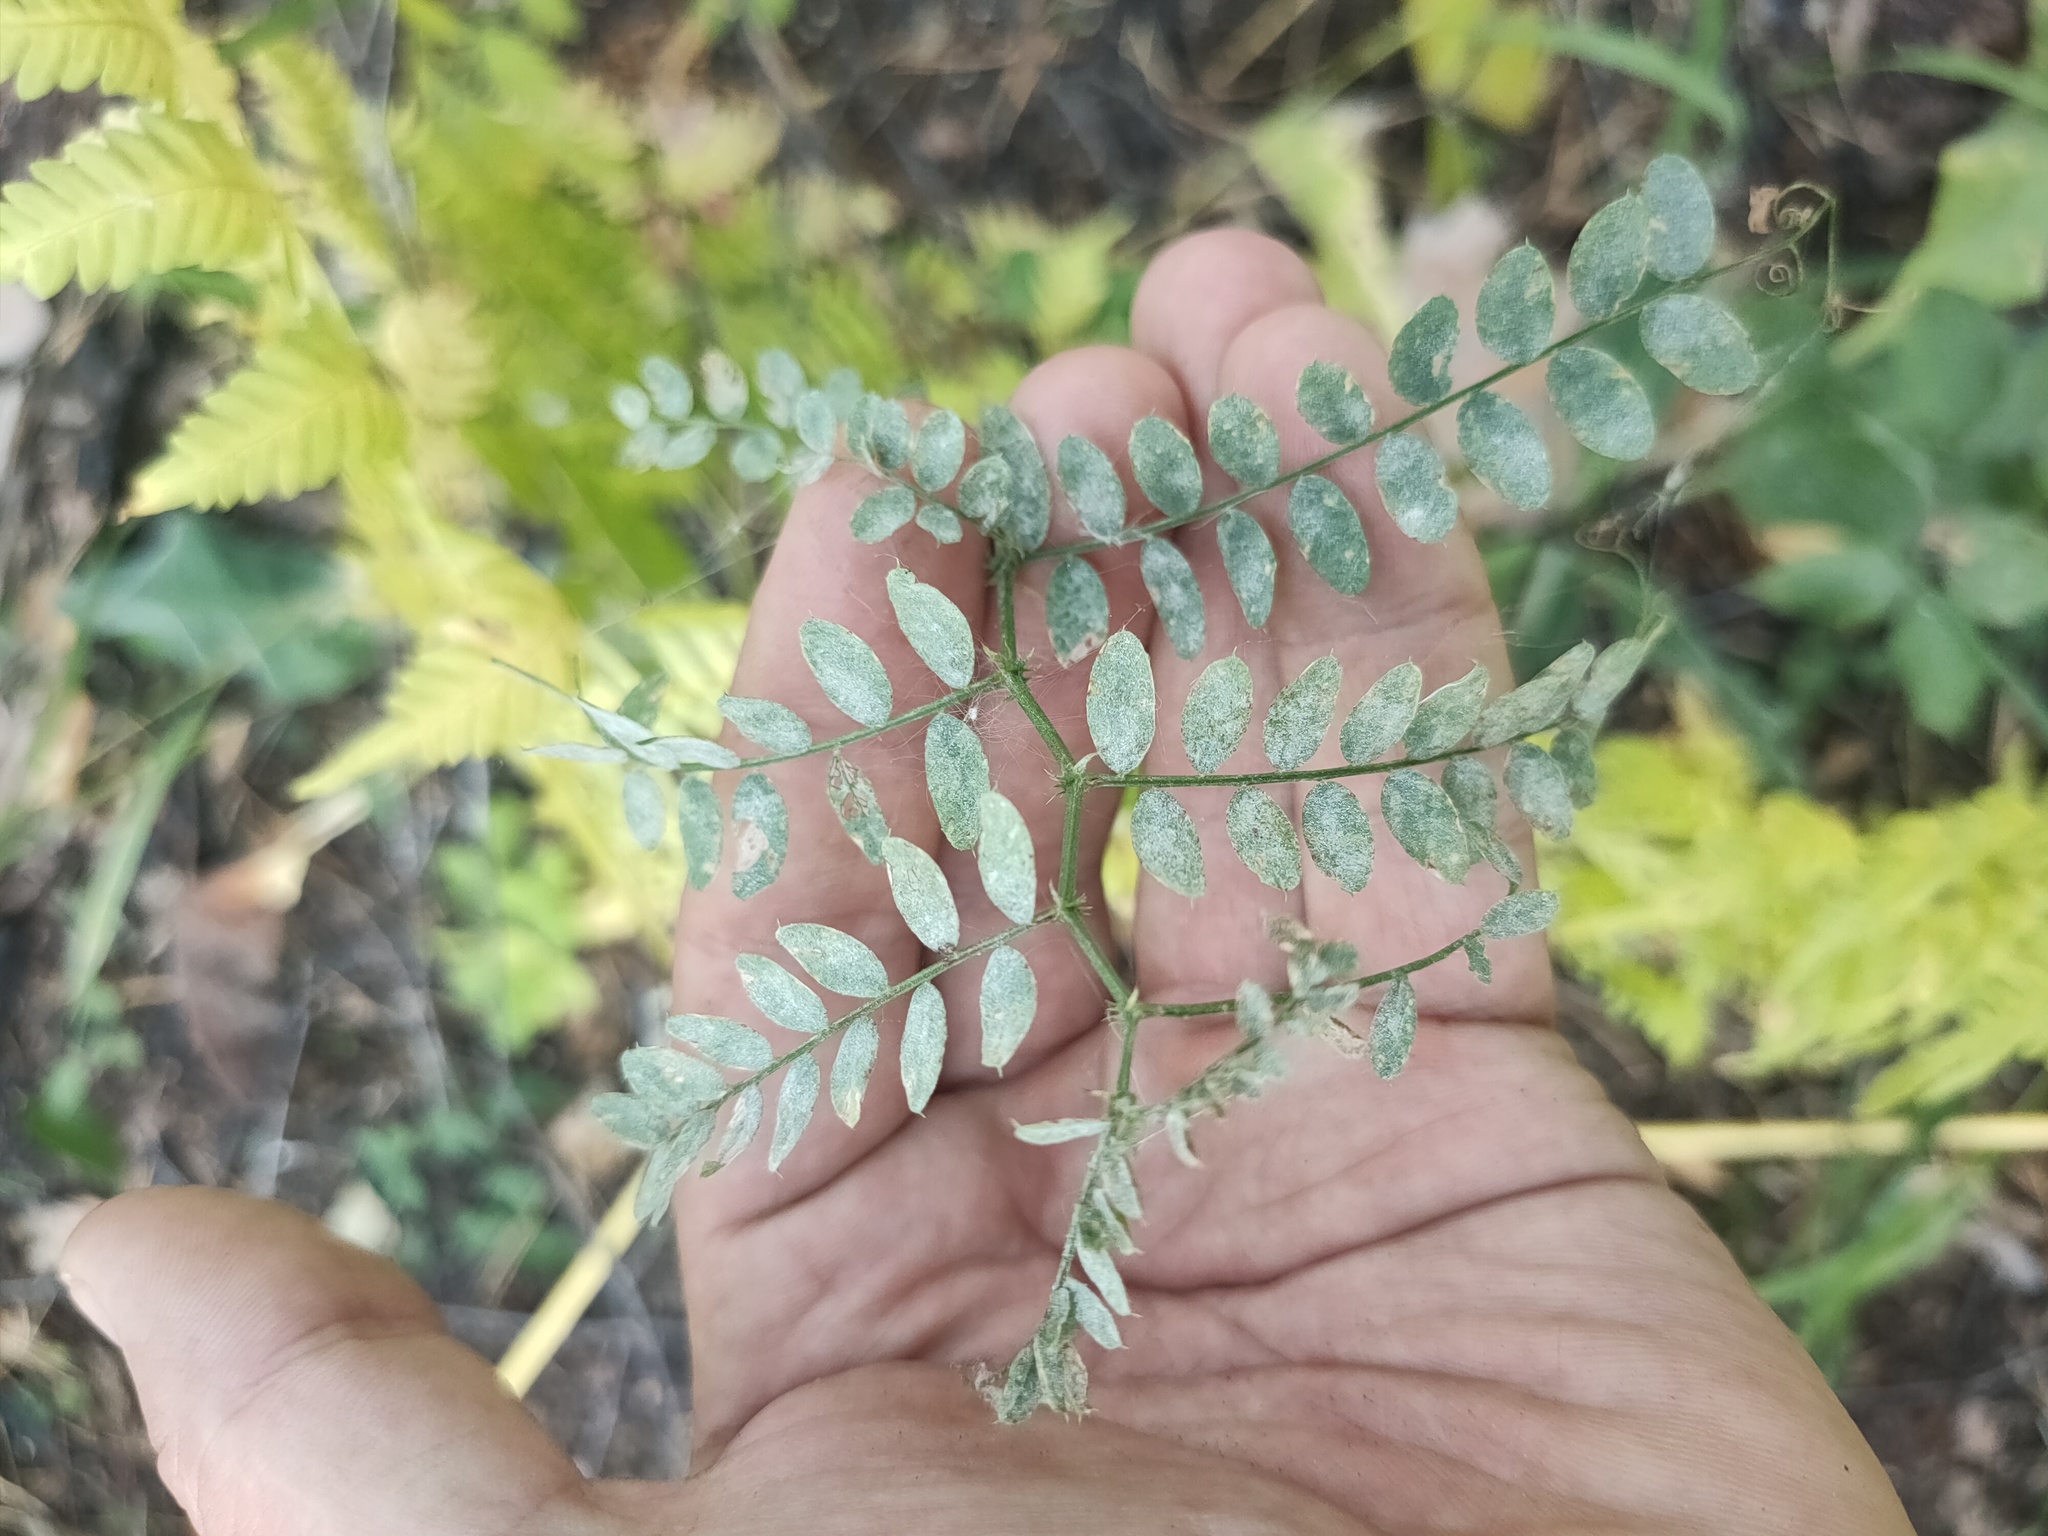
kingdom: Plantae
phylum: Tracheophyta
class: Magnoliopsida
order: Fabales
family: Fabaceae
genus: Vicia
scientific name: Vicia sylvatica
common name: Wood vetch
